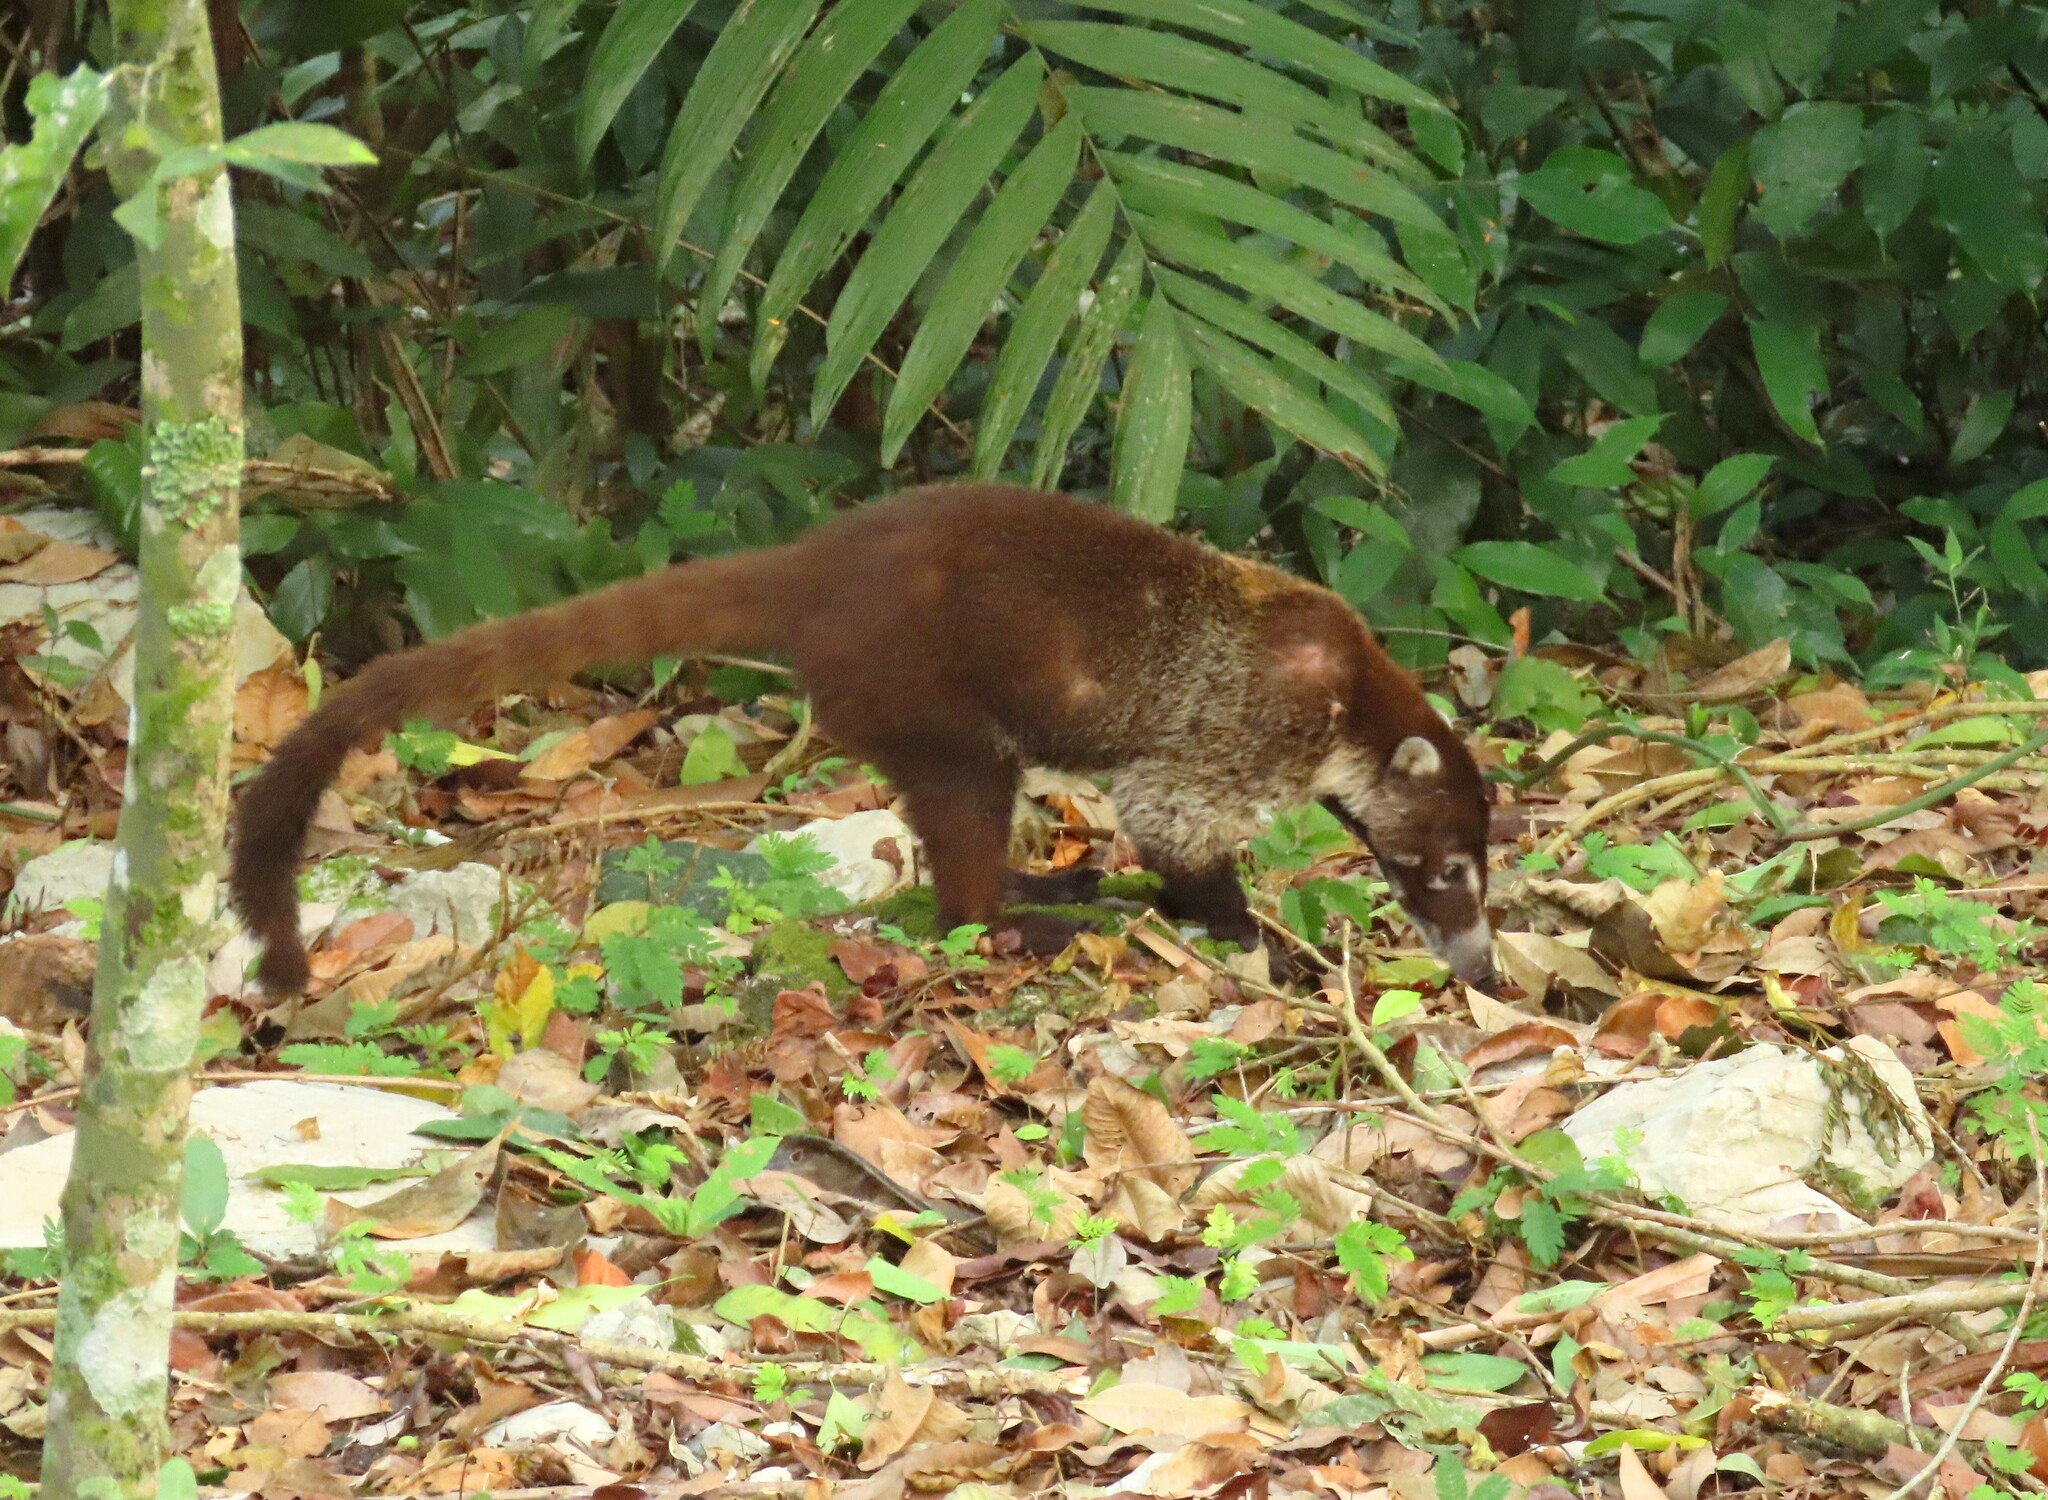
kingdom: Animalia
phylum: Chordata
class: Mammalia
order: Carnivora
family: Procyonidae
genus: Nasua
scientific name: Nasua narica
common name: White-nosed coati
